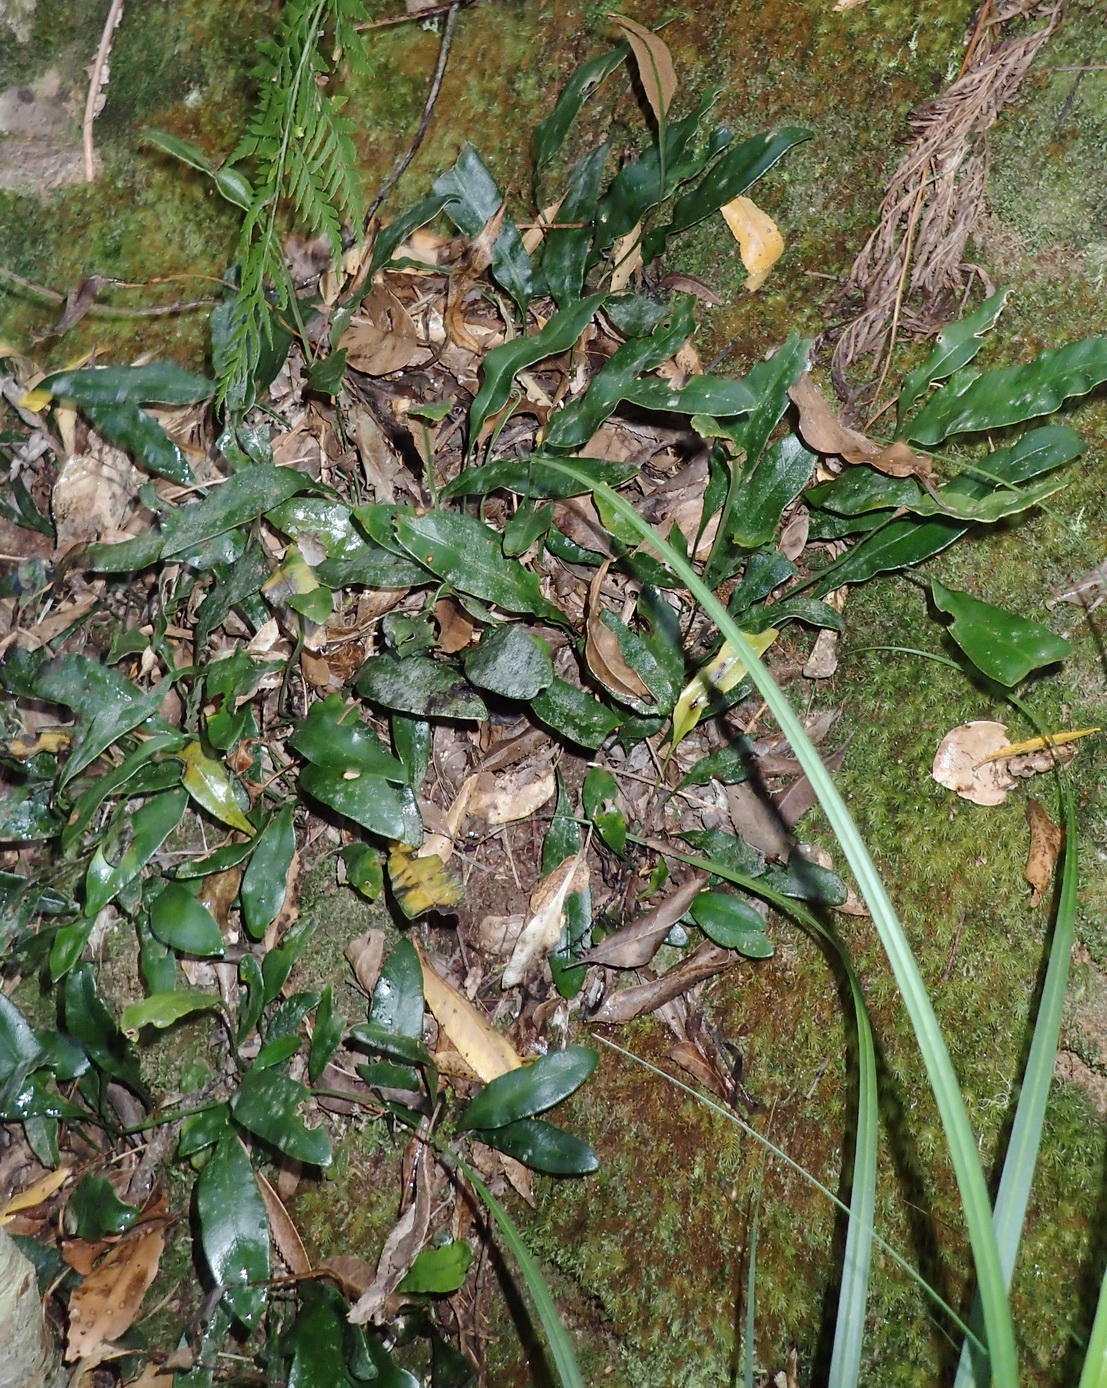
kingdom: Plantae
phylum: Tracheophyta
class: Polypodiopsida
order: Polypodiales
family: Dryopteridaceae
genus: Elaphoglossum
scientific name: Elaphoglossum angustatum
